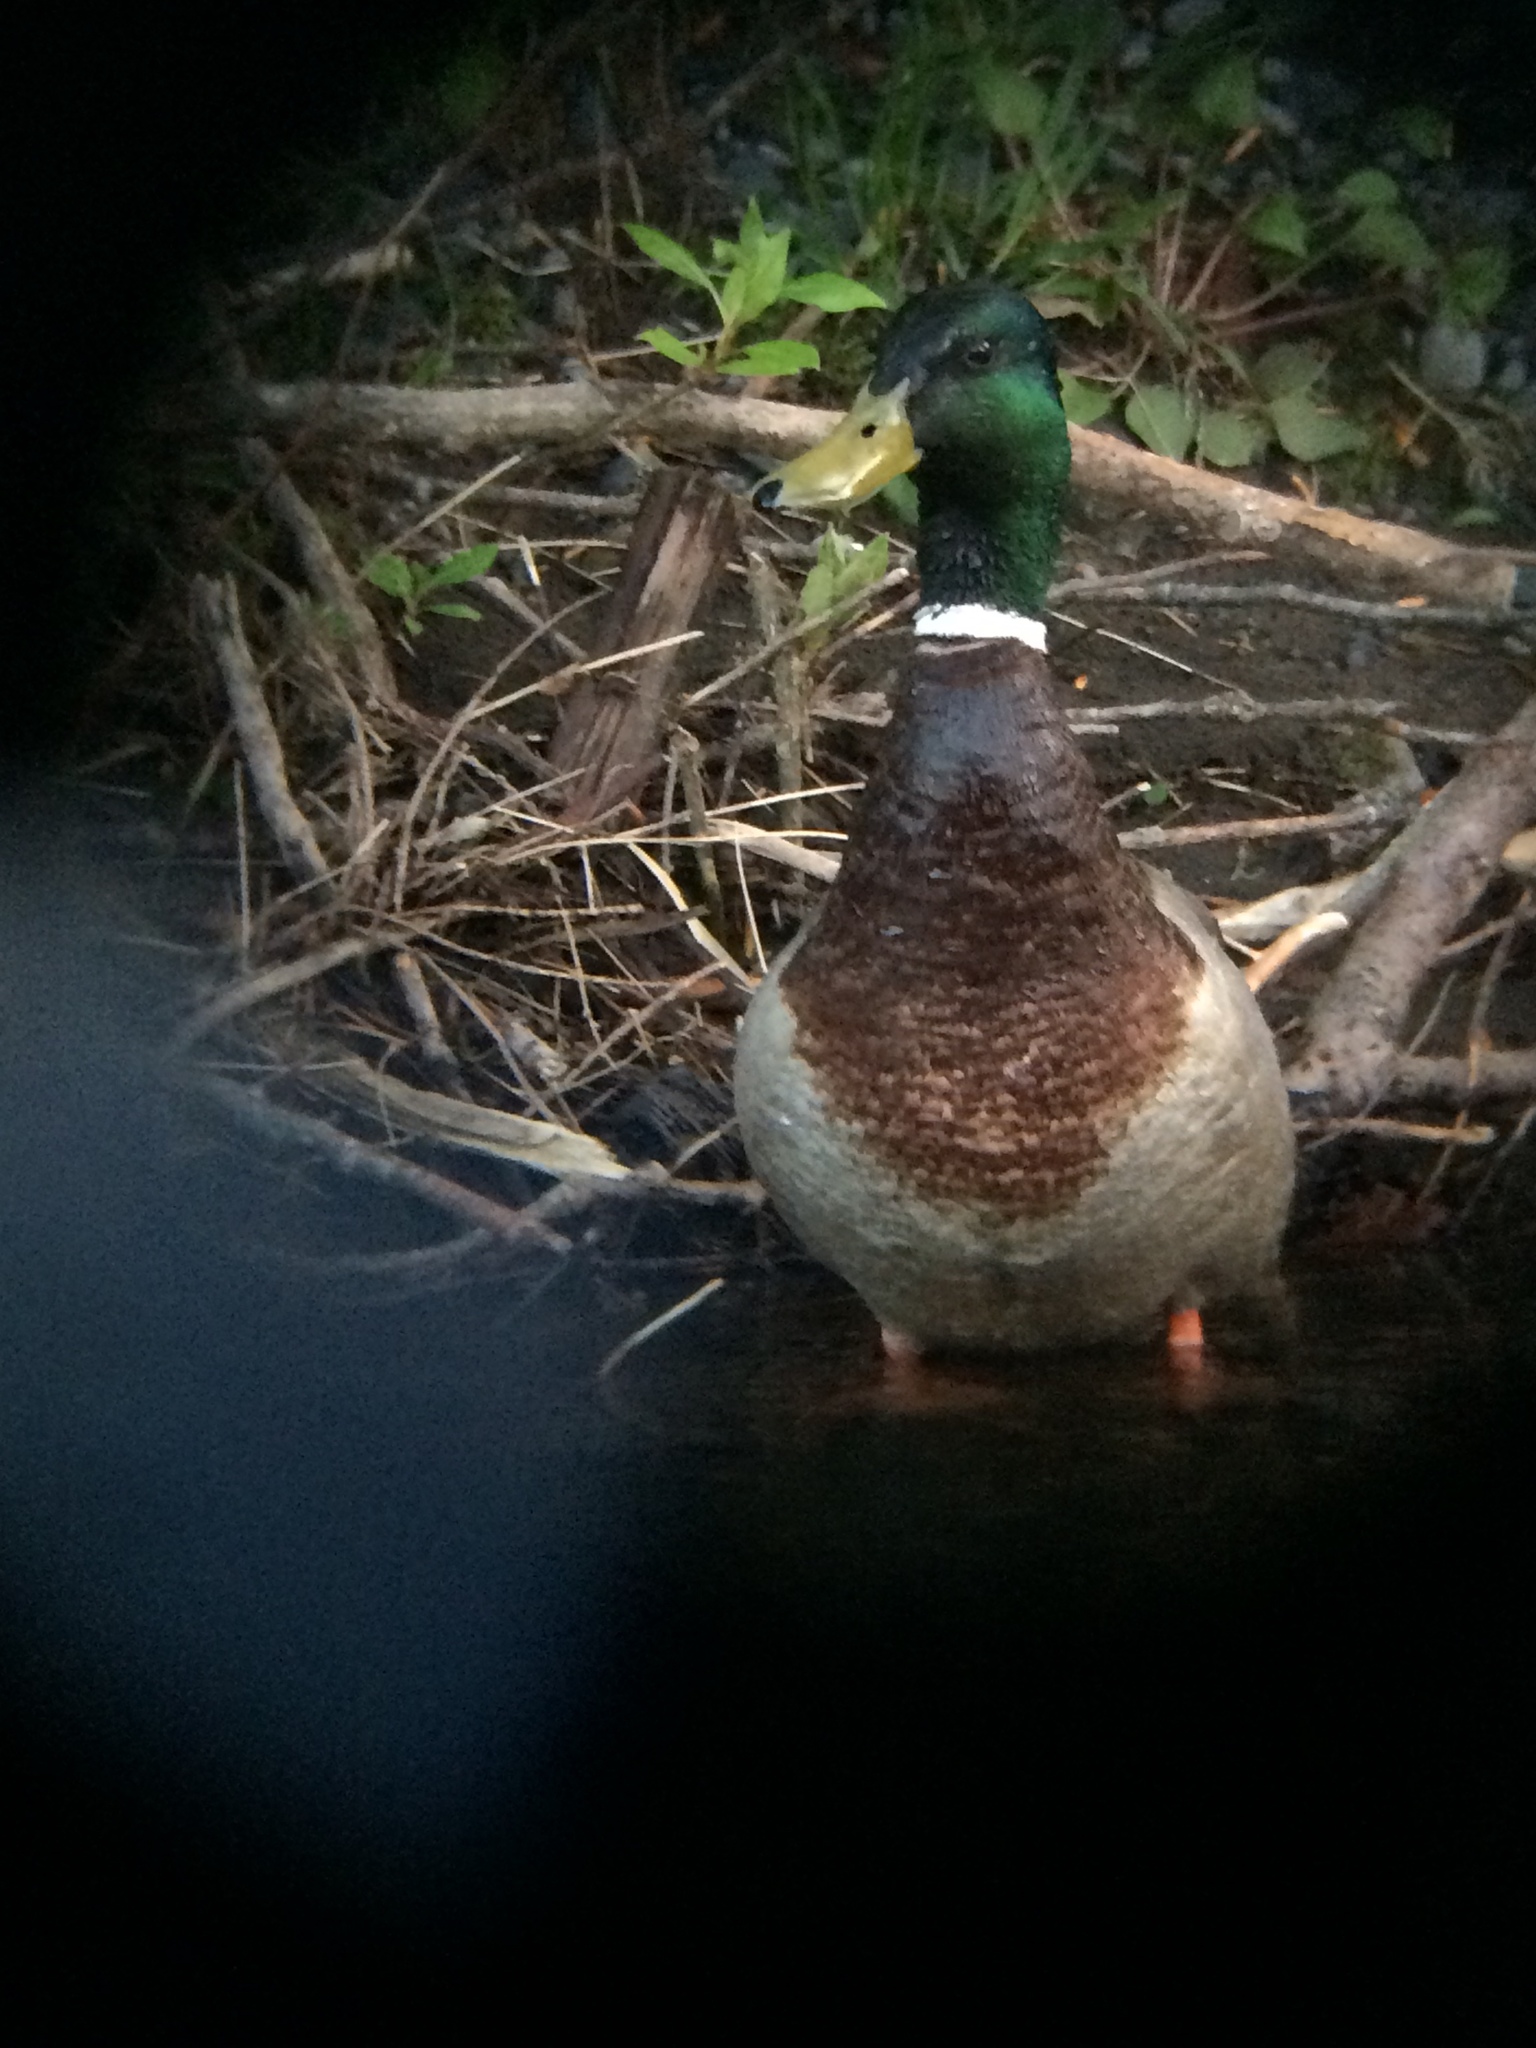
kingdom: Animalia
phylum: Chordata
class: Aves
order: Anseriformes
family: Anatidae
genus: Anas
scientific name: Anas platyrhynchos
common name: Mallard
